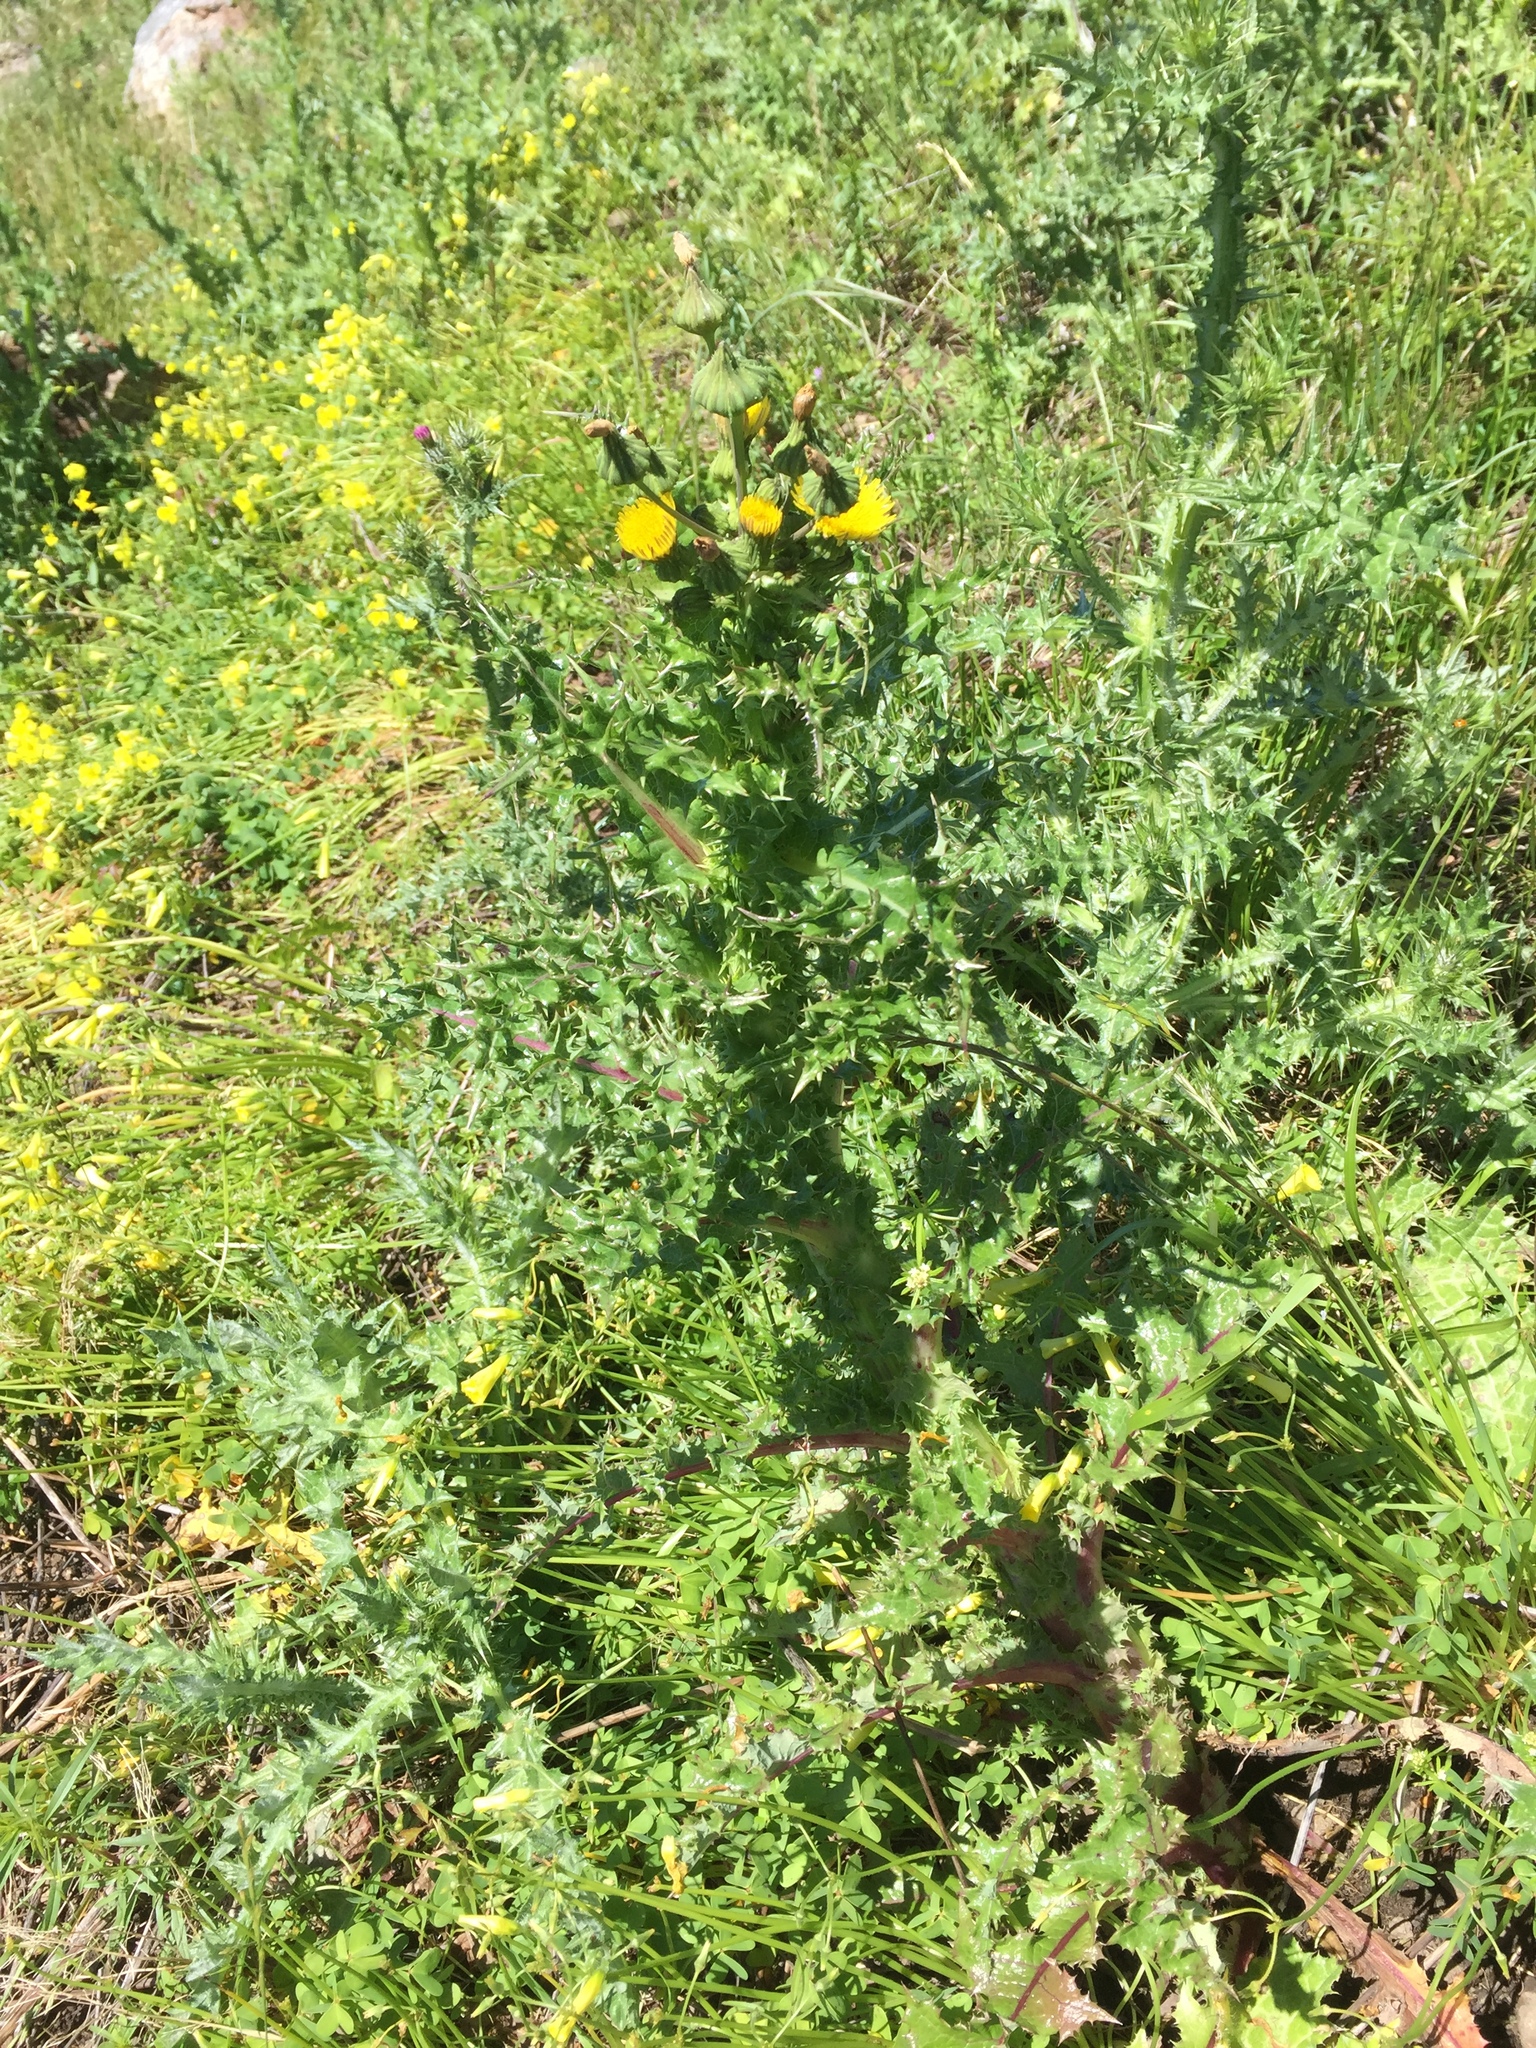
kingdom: Plantae
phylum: Tracheophyta
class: Magnoliopsida
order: Asterales
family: Asteraceae
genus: Sonchus
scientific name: Sonchus asper
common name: Prickly sow-thistle
